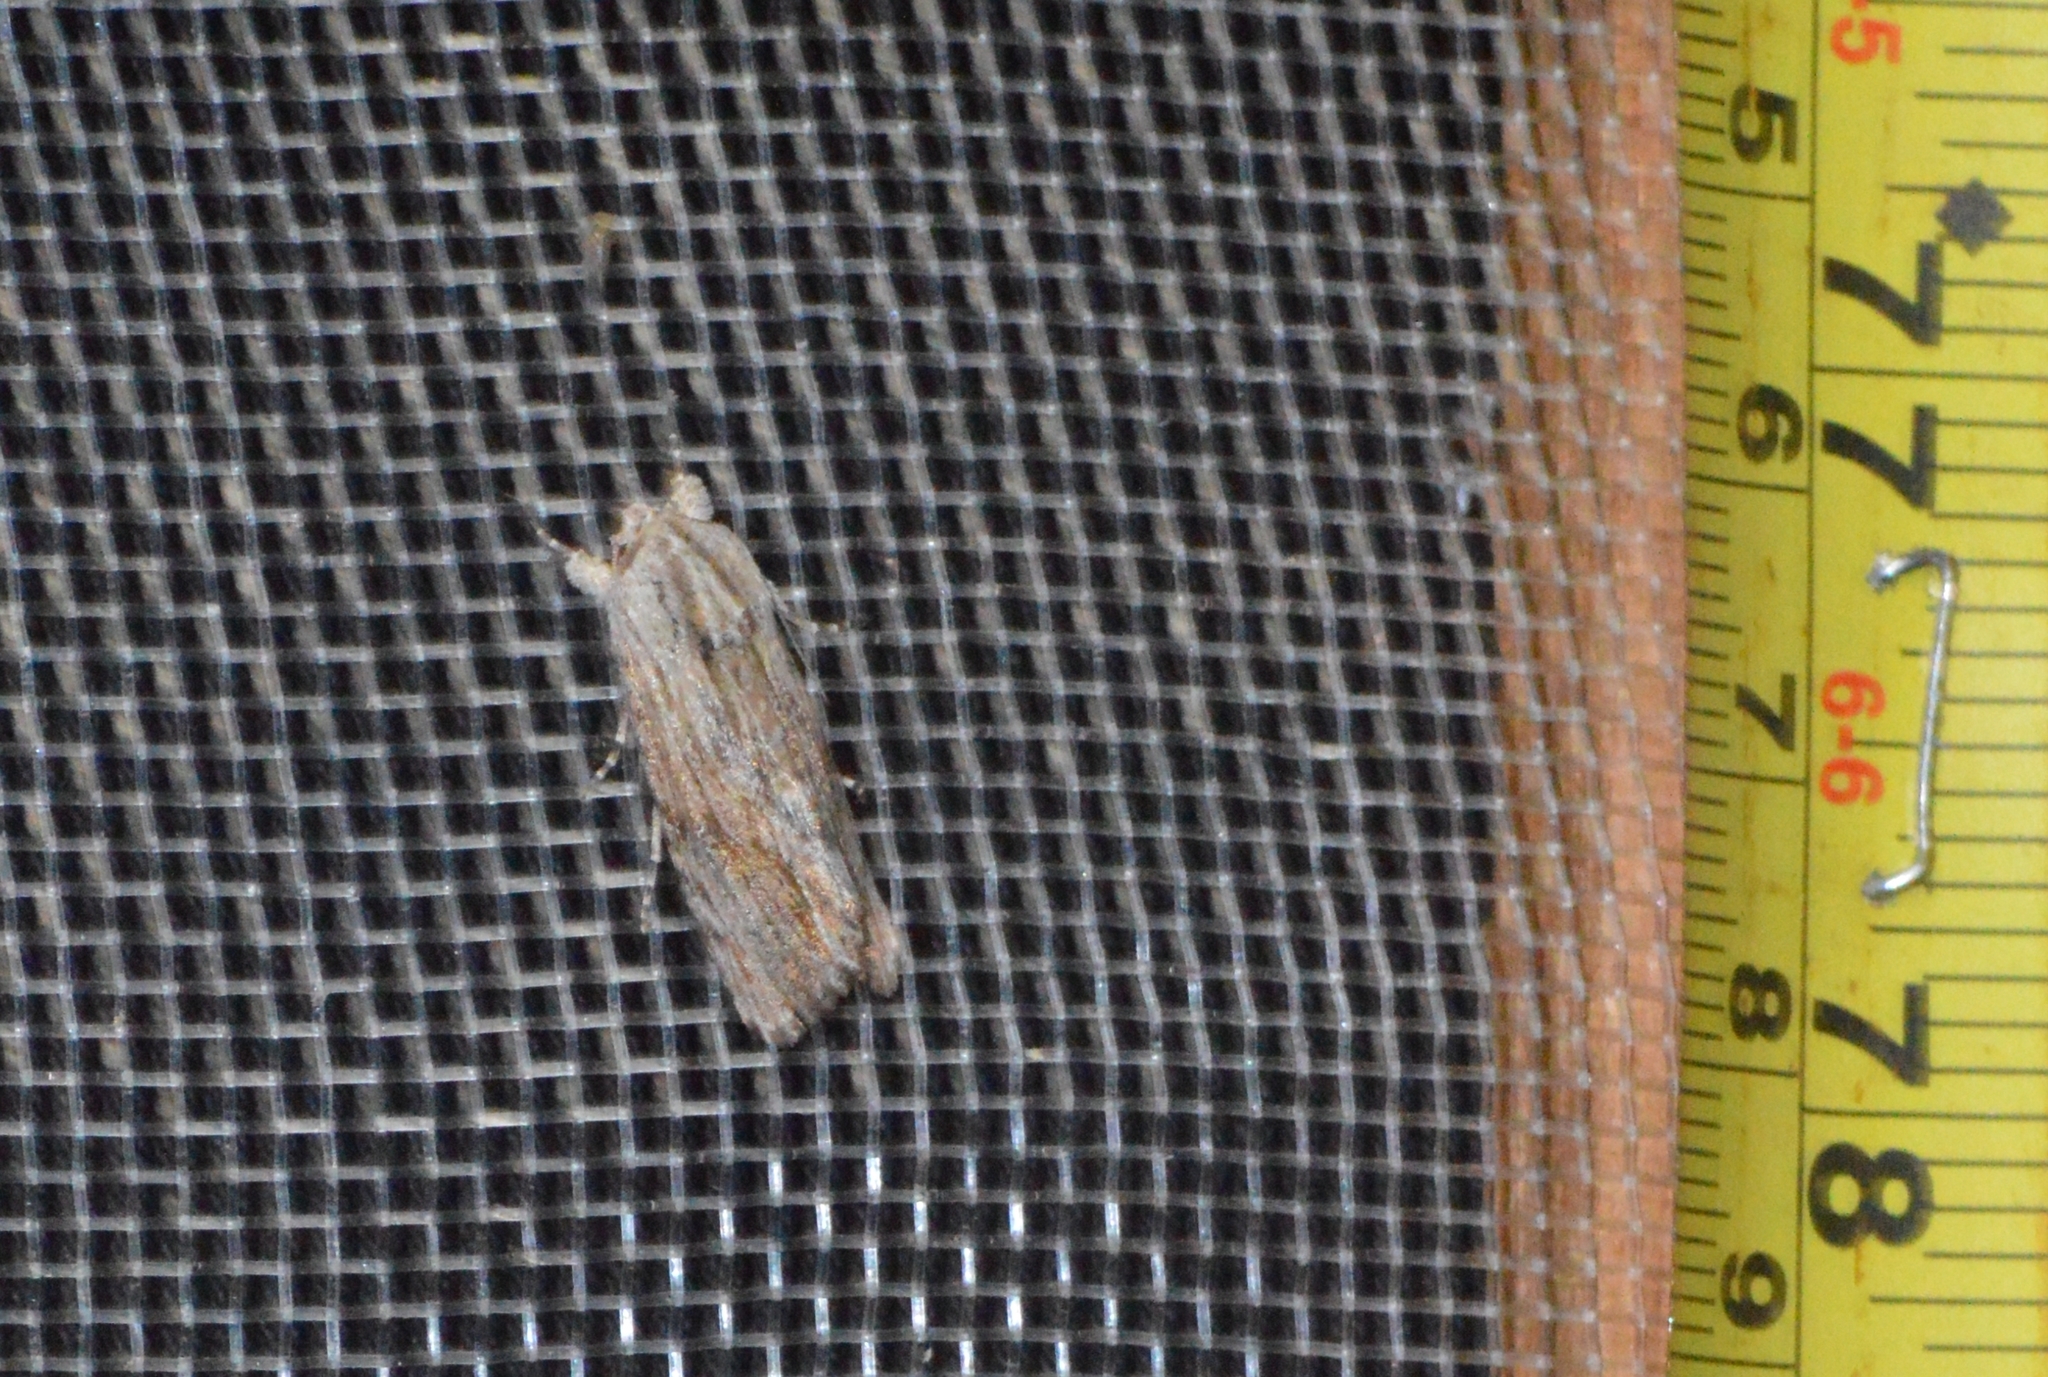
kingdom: Animalia
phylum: Arthropoda
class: Insecta
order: Lepidoptera
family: Noctuidae
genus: Spodoptera
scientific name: Spodoptera eridania
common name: Southern army worm
